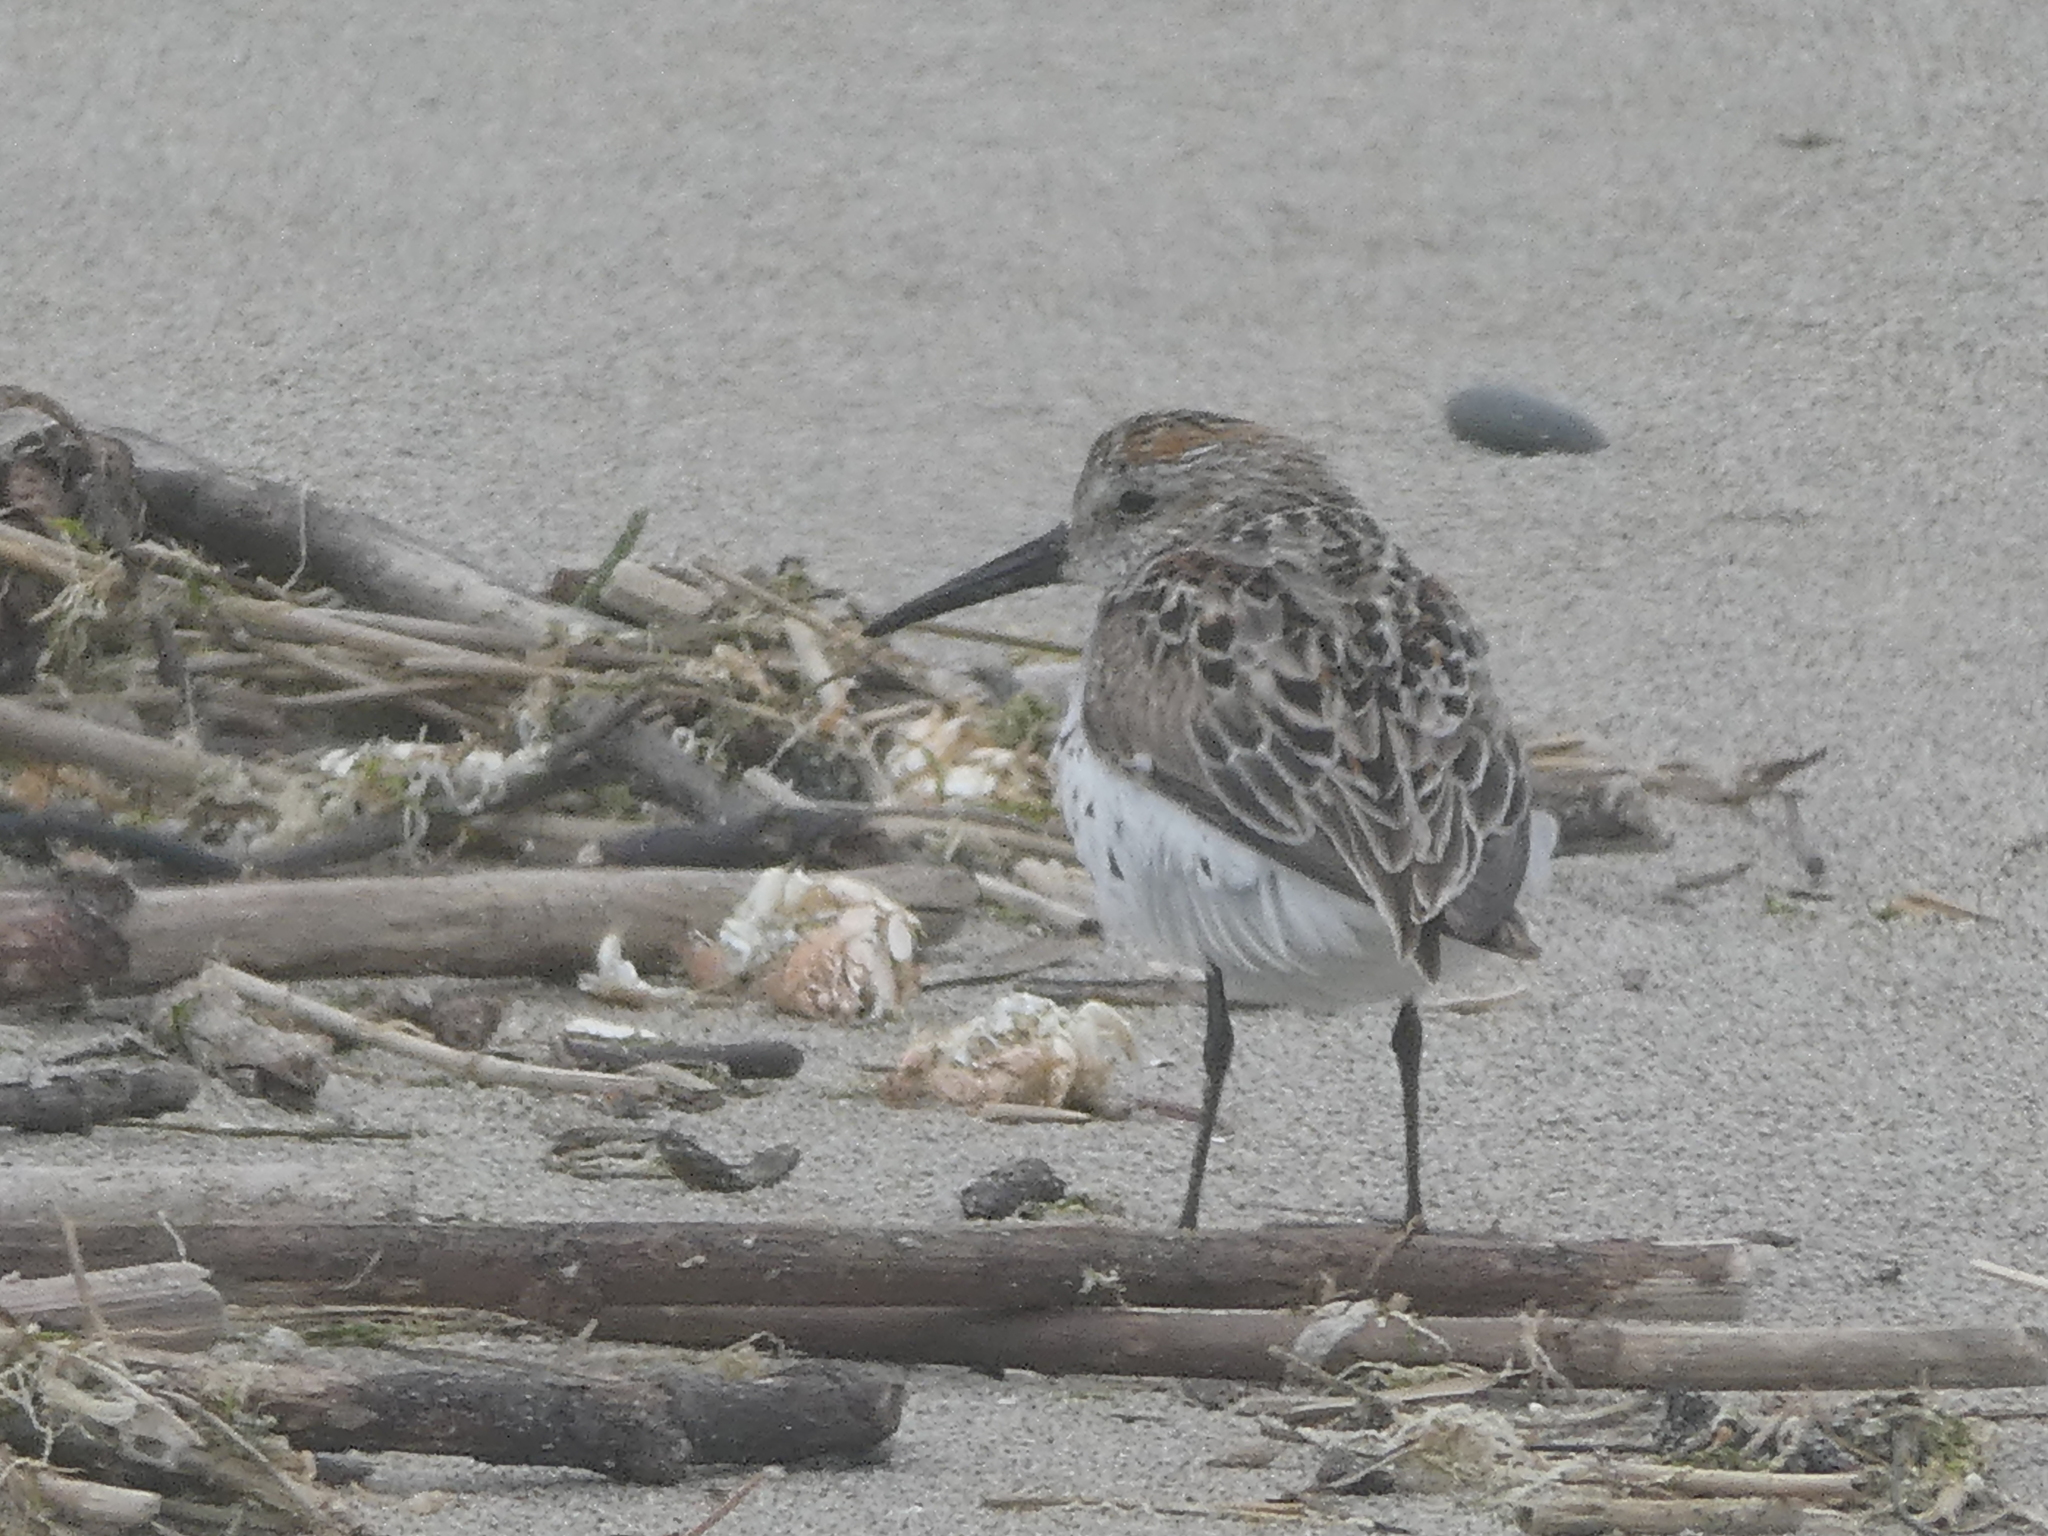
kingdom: Animalia
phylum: Chordata
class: Aves
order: Charadriiformes
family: Scolopacidae
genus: Calidris
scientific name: Calidris mauri
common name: Western sandpiper
